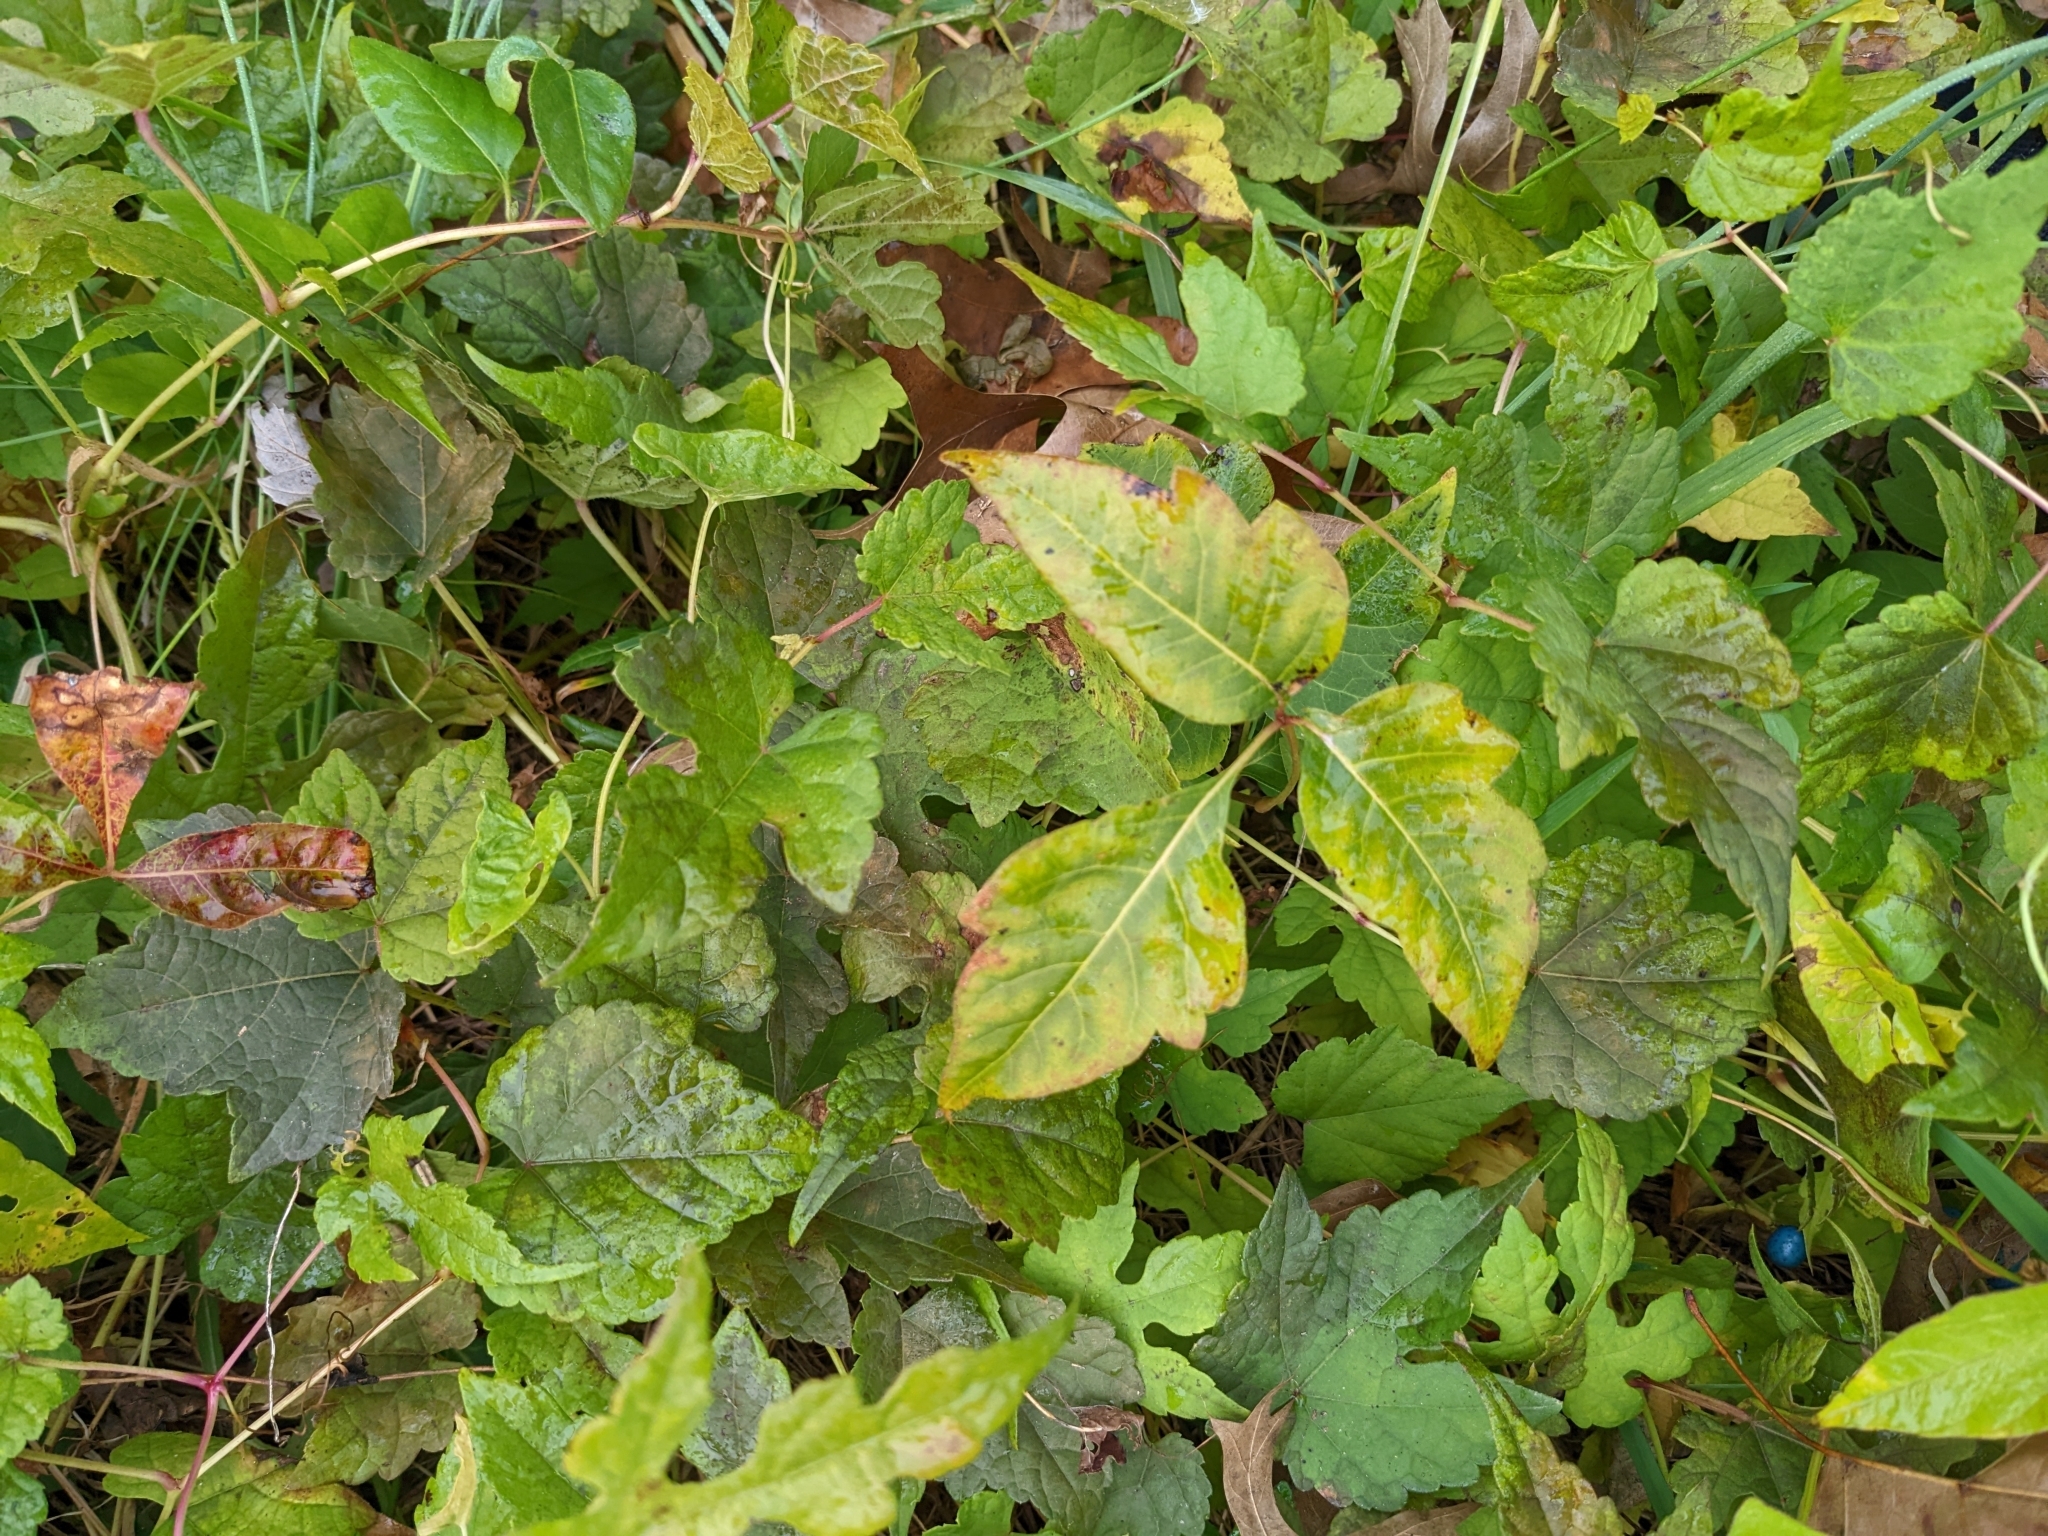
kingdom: Plantae
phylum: Tracheophyta
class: Magnoliopsida
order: Sapindales
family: Anacardiaceae
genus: Toxicodendron
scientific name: Toxicodendron radicans
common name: Poison ivy
